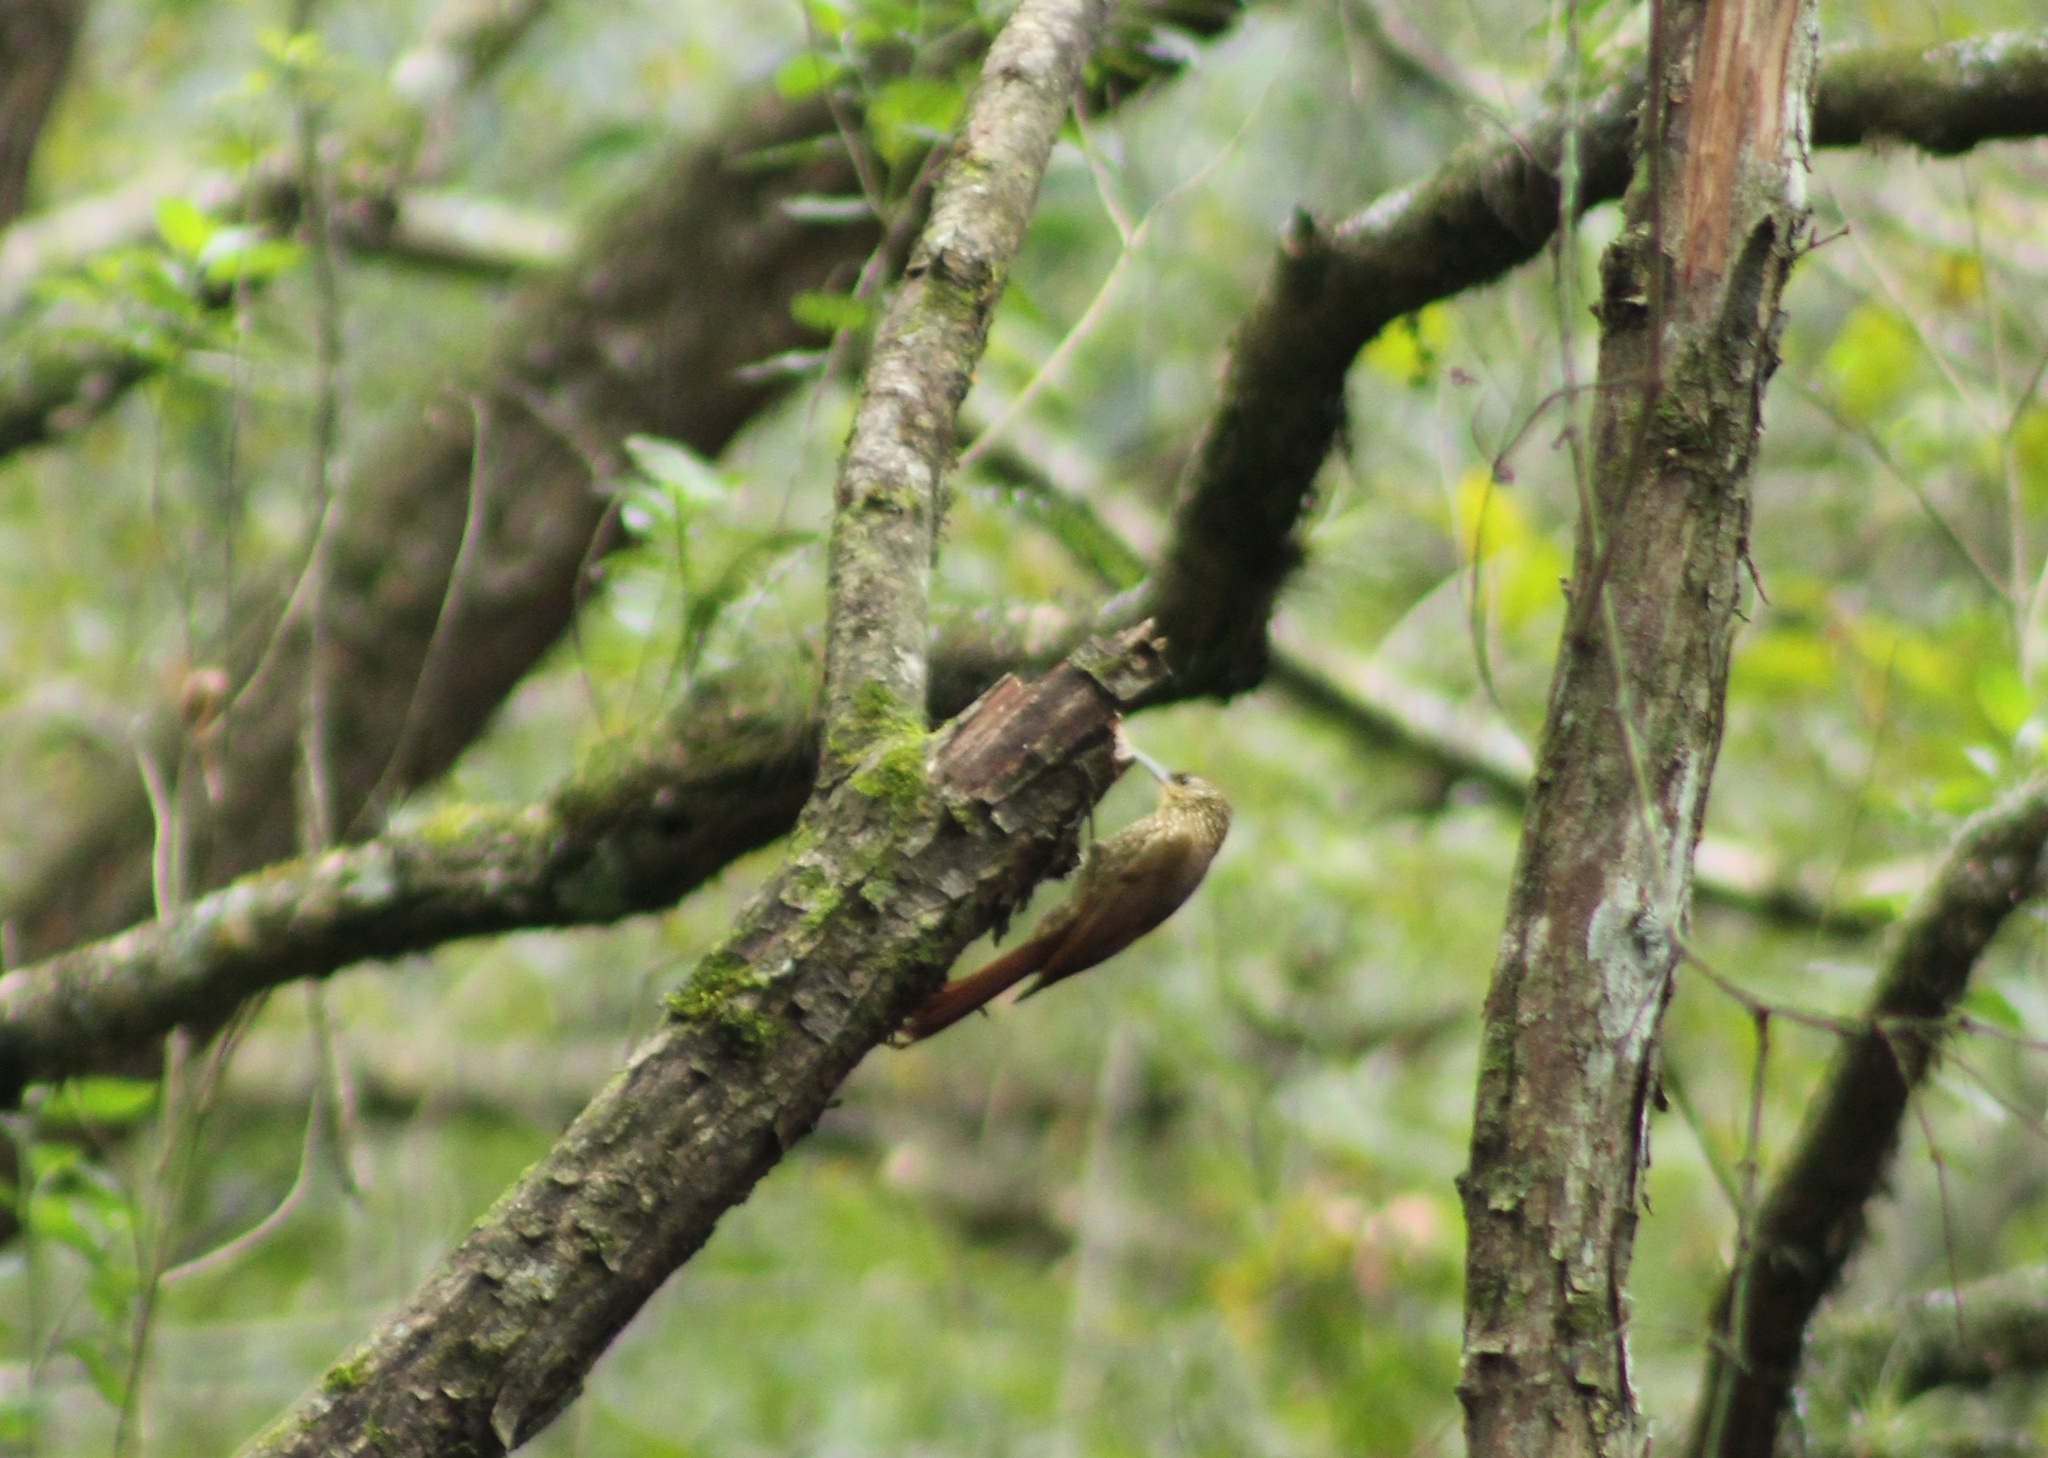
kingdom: Animalia
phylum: Chordata
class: Aves
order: Passeriformes
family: Furnariidae
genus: Lepidocolaptes
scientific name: Lepidocolaptes affinis
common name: Spot-crowned woodcreeper
